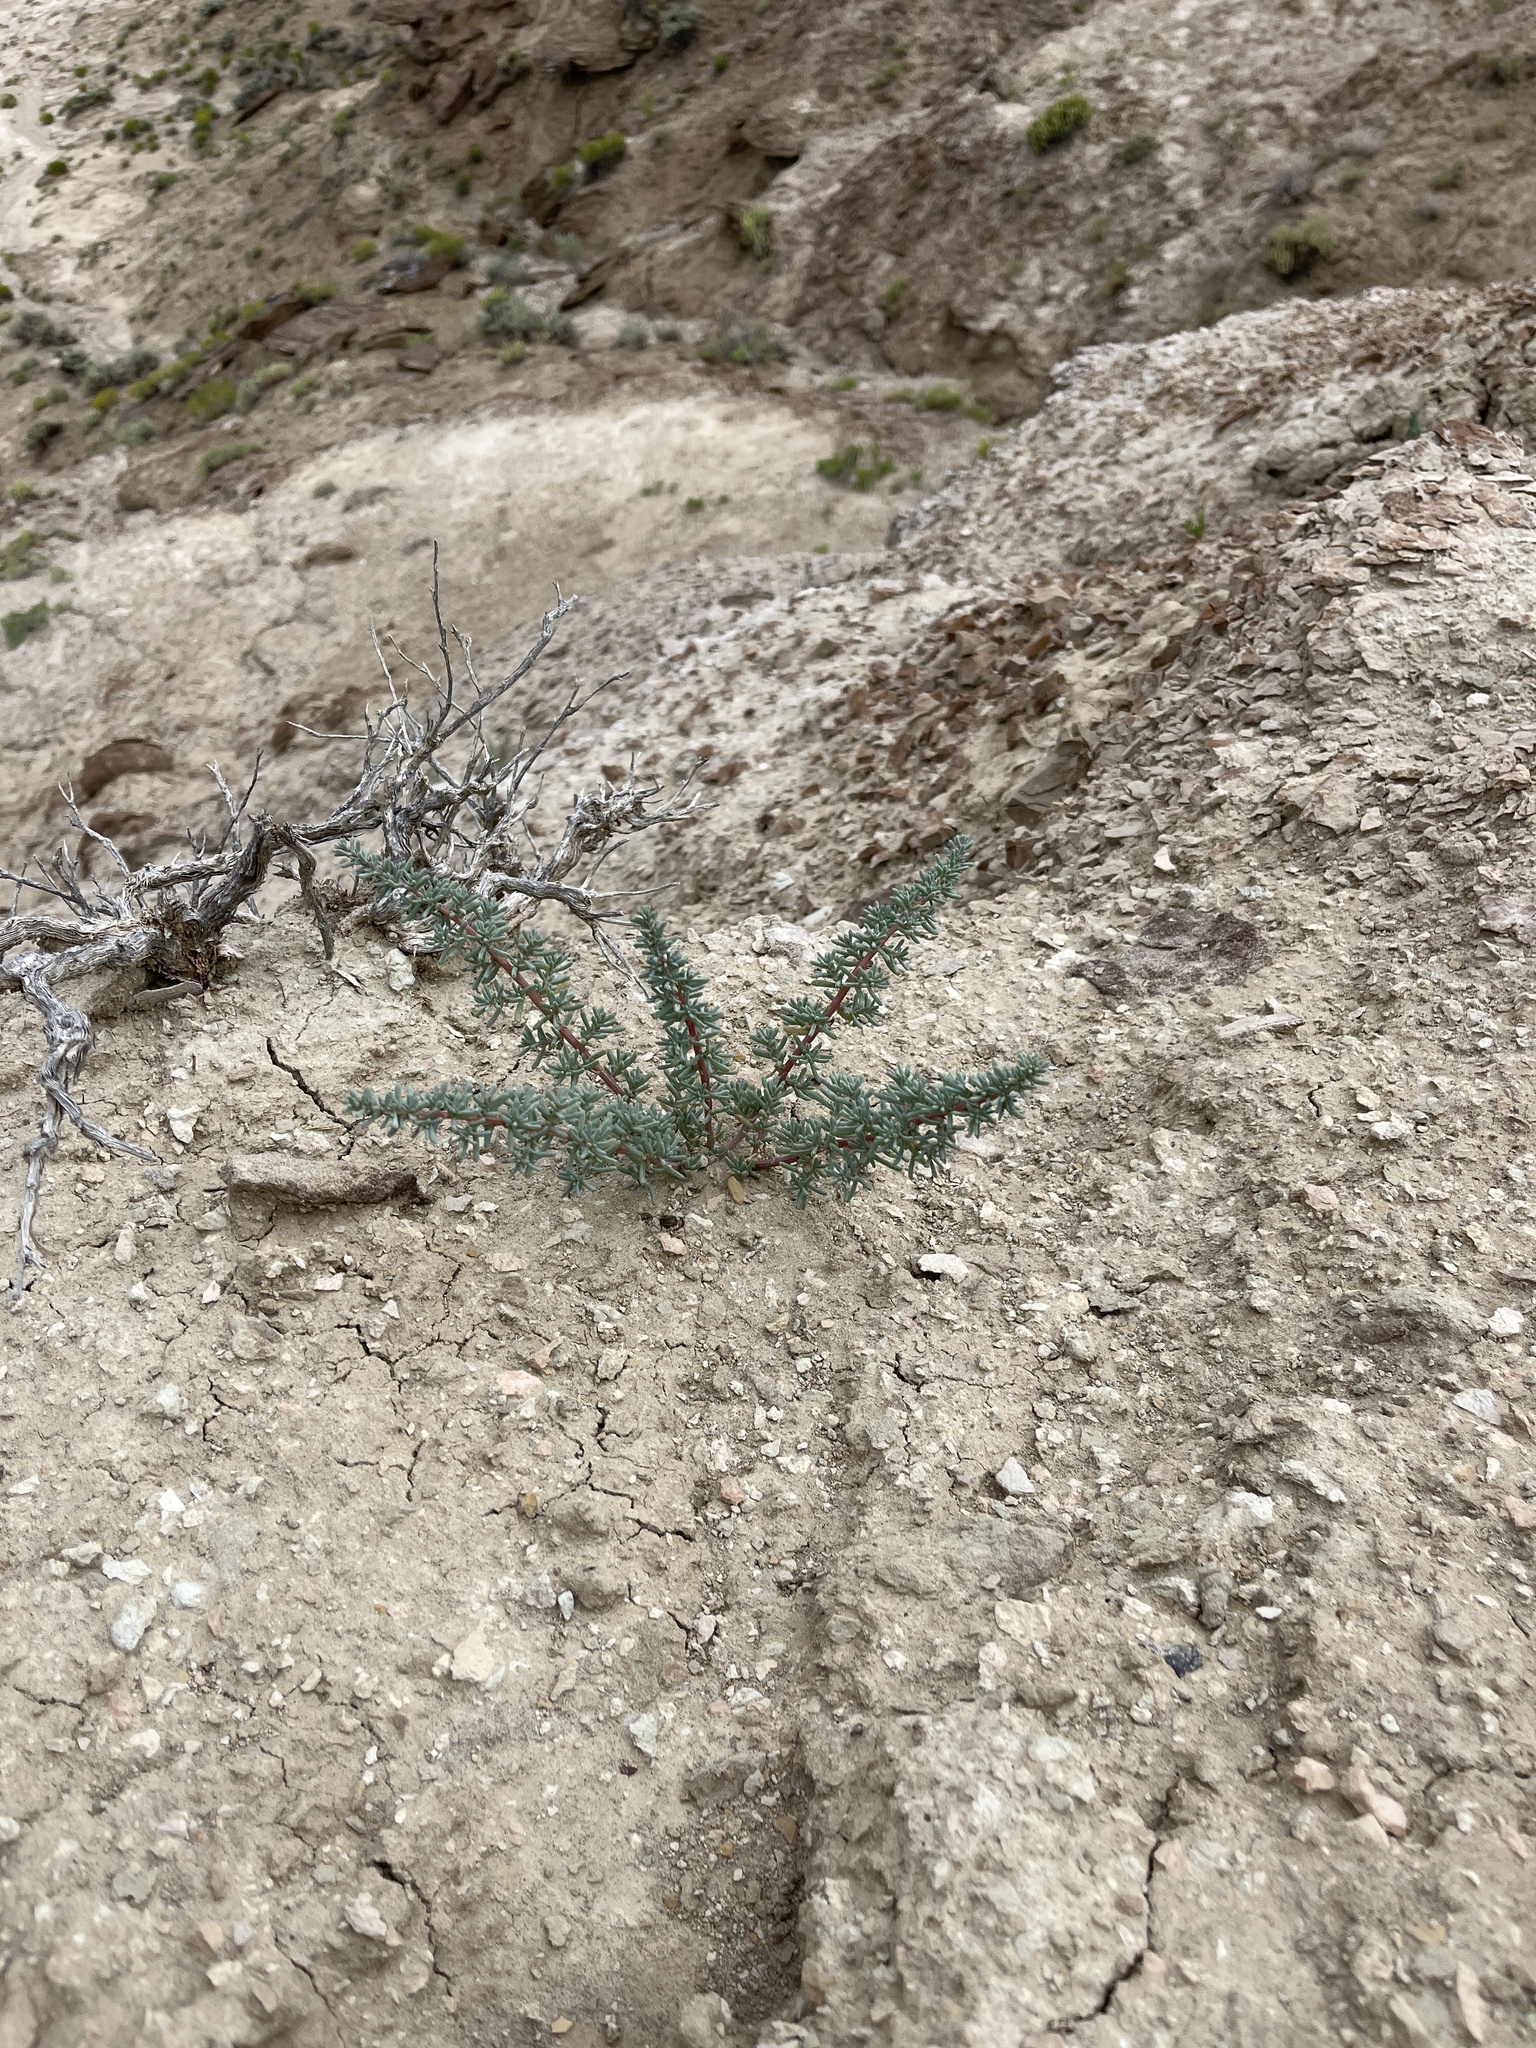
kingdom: Plantae
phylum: Tracheophyta
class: Magnoliopsida
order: Caryophyllales
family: Amaranthaceae
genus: Halogeton
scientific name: Halogeton glomeratus
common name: Saltlover
